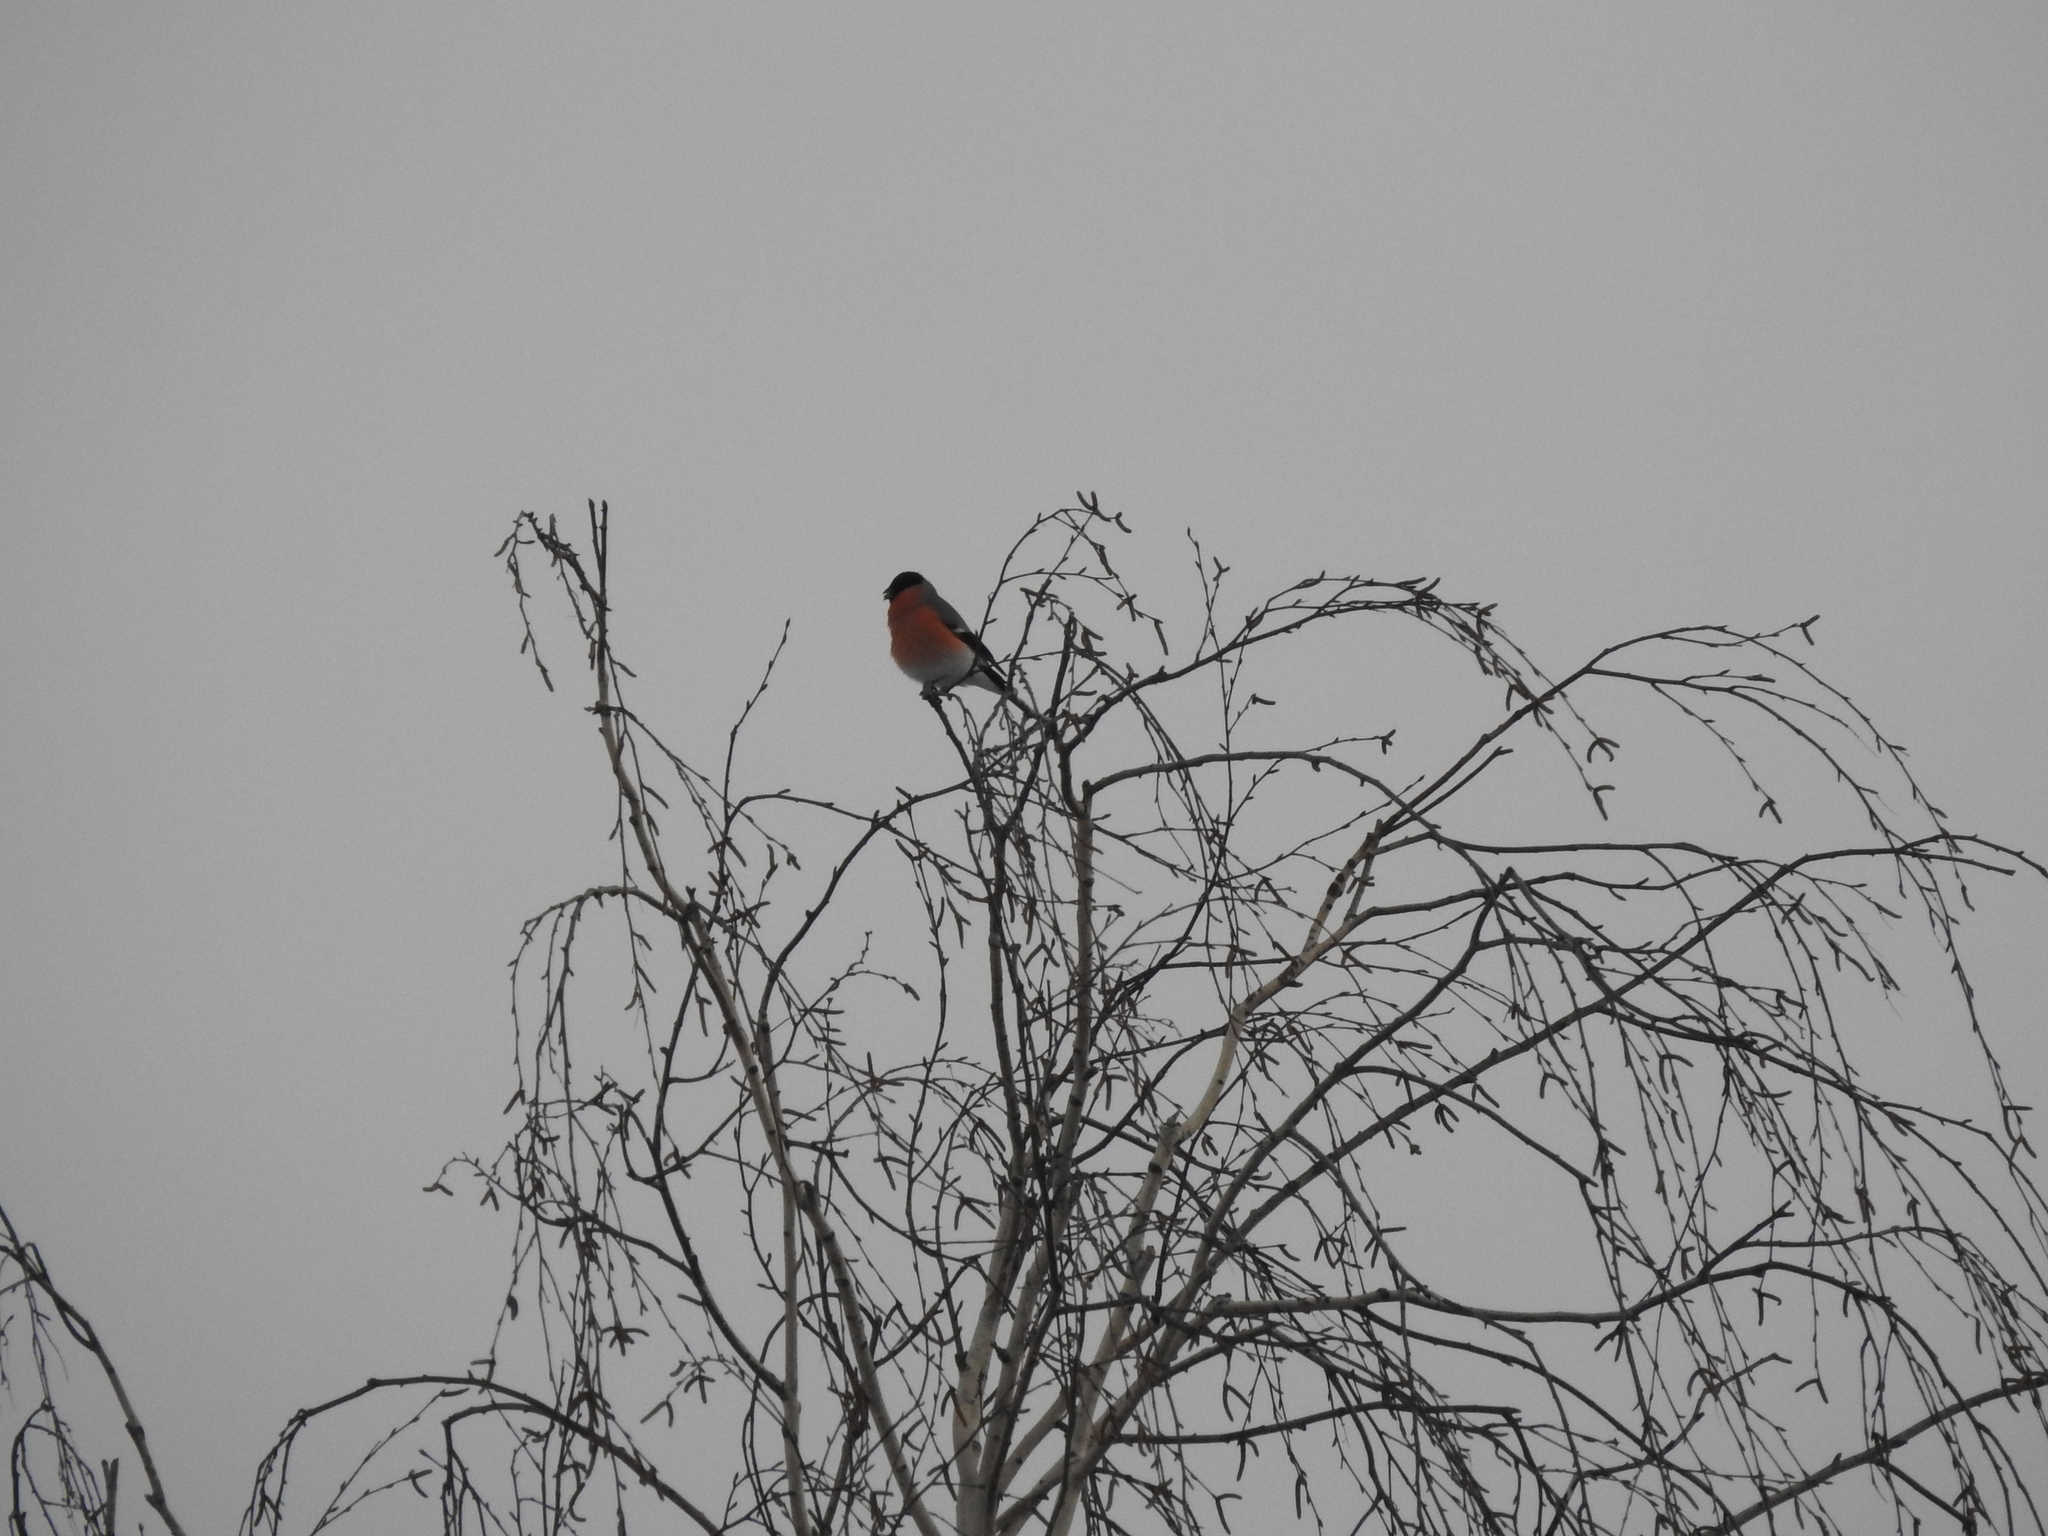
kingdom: Animalia
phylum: Chordata
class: Aves
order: Passeriformes
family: Fringillidae
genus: Pyrrhula
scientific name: Pyrrhula pyrrhula
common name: Eurasian bullfinch
